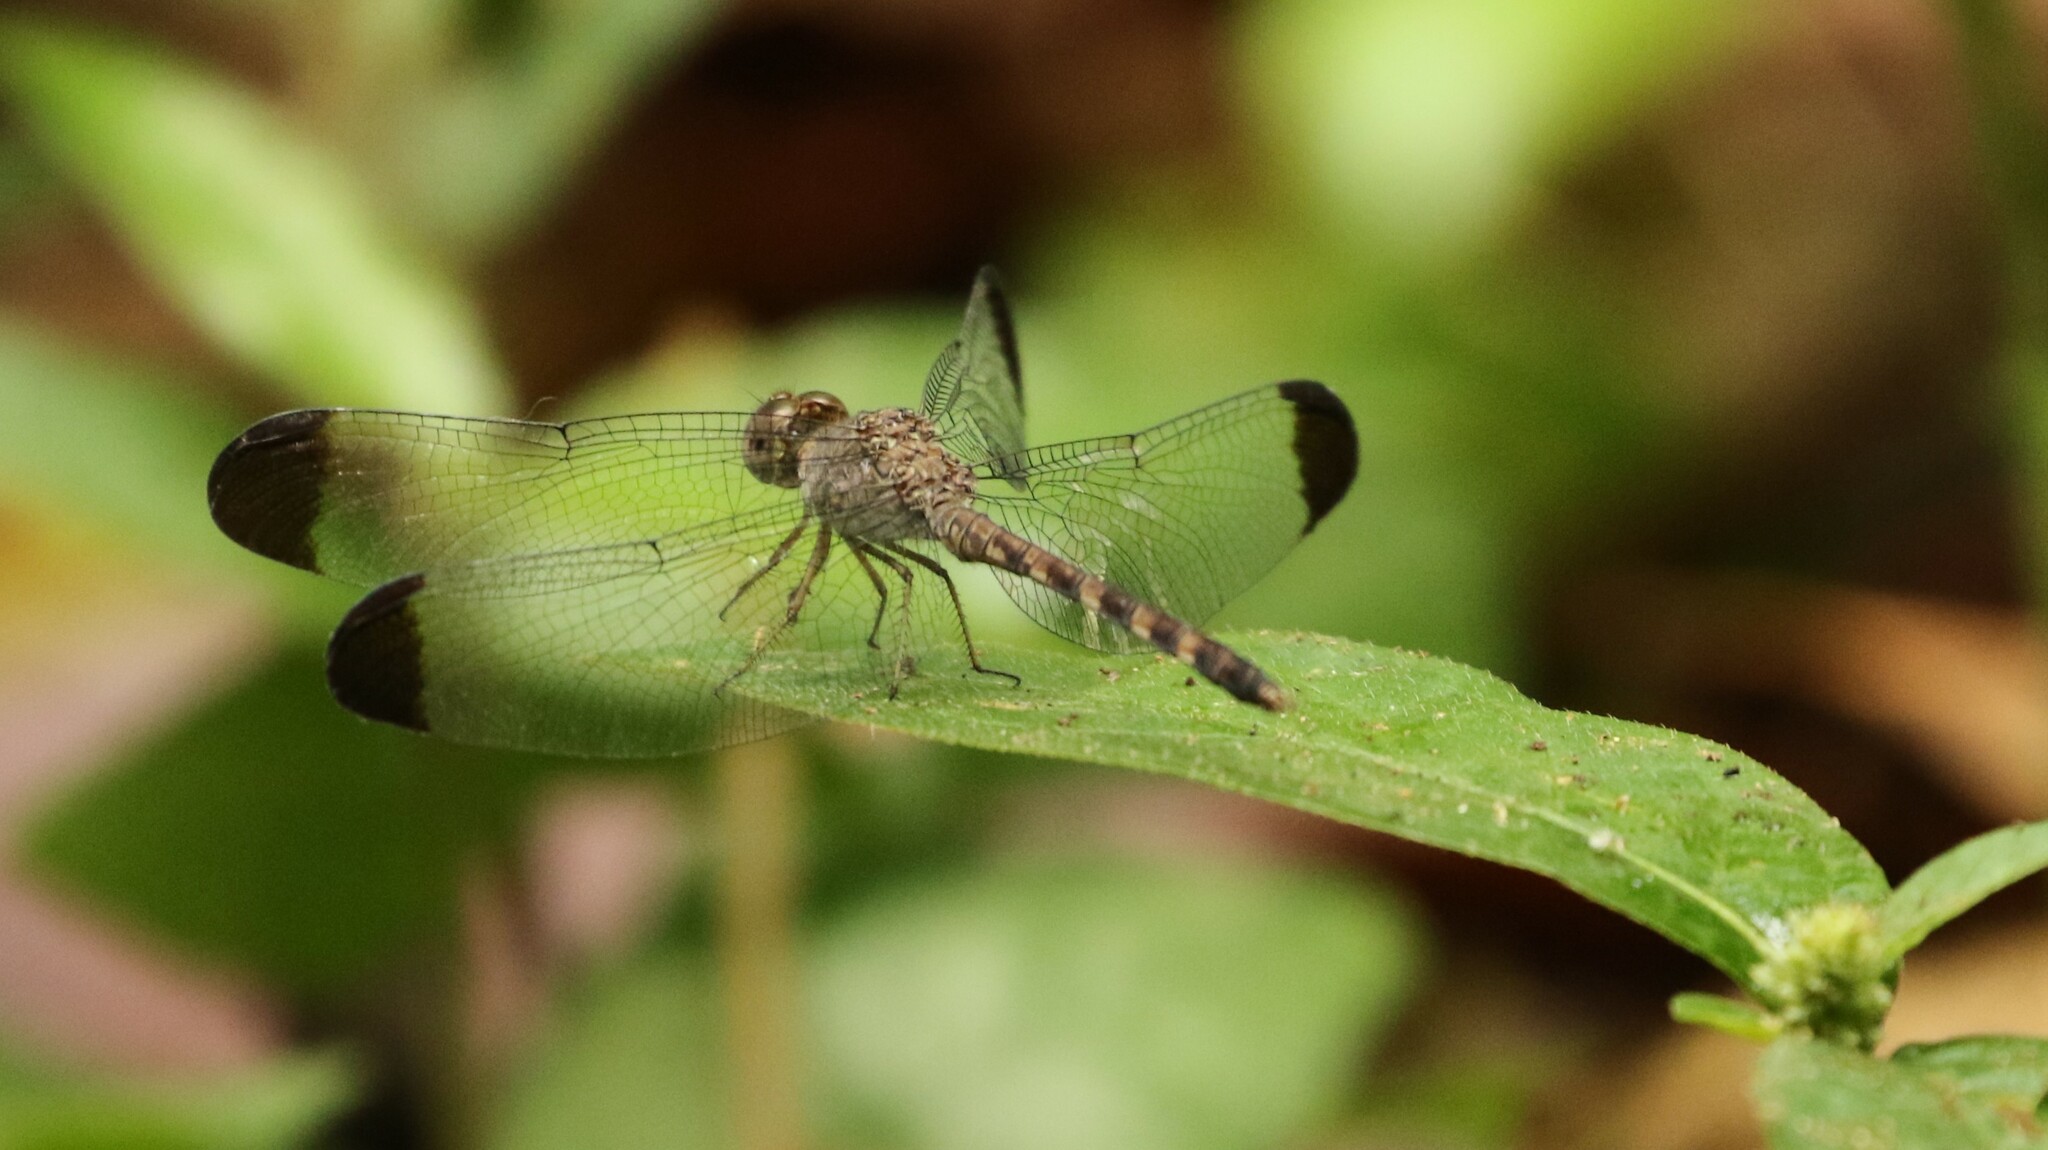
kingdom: Animalia
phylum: Arthropoda
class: Insecta
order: Odonata
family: Libellulidae
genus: Uracis
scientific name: Uracis imbuta
